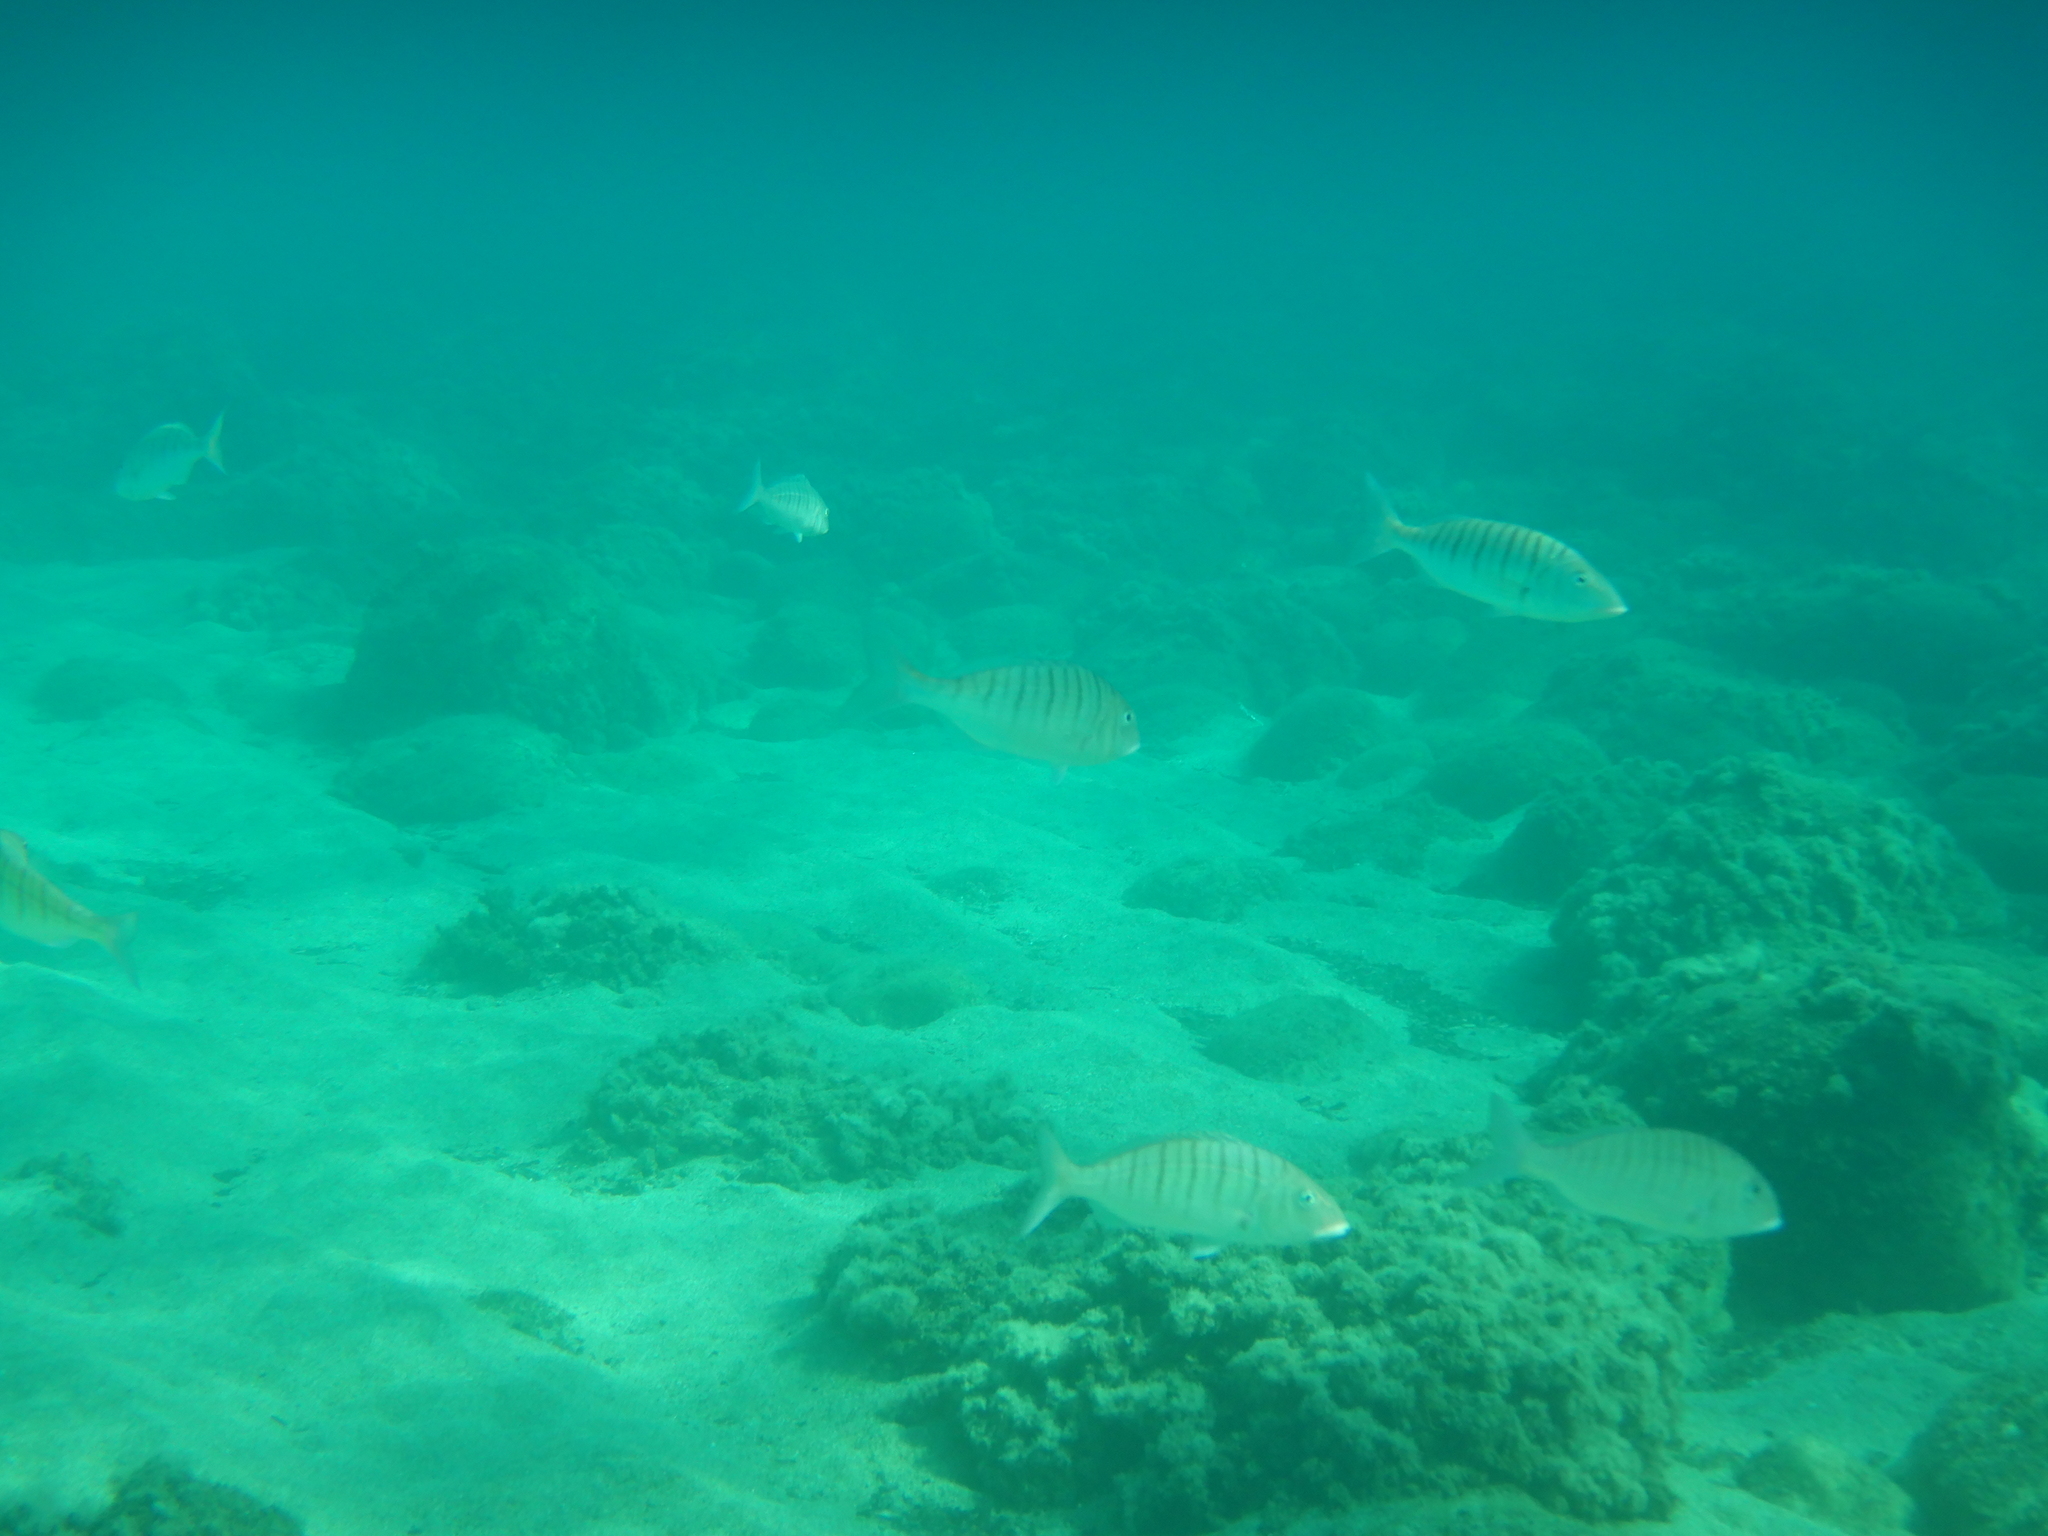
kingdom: Animalia
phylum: Chordata
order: Perciformes
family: Sparidae
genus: Lithognathus
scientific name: Lithognathus mormyrus
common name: Sand steenbras
